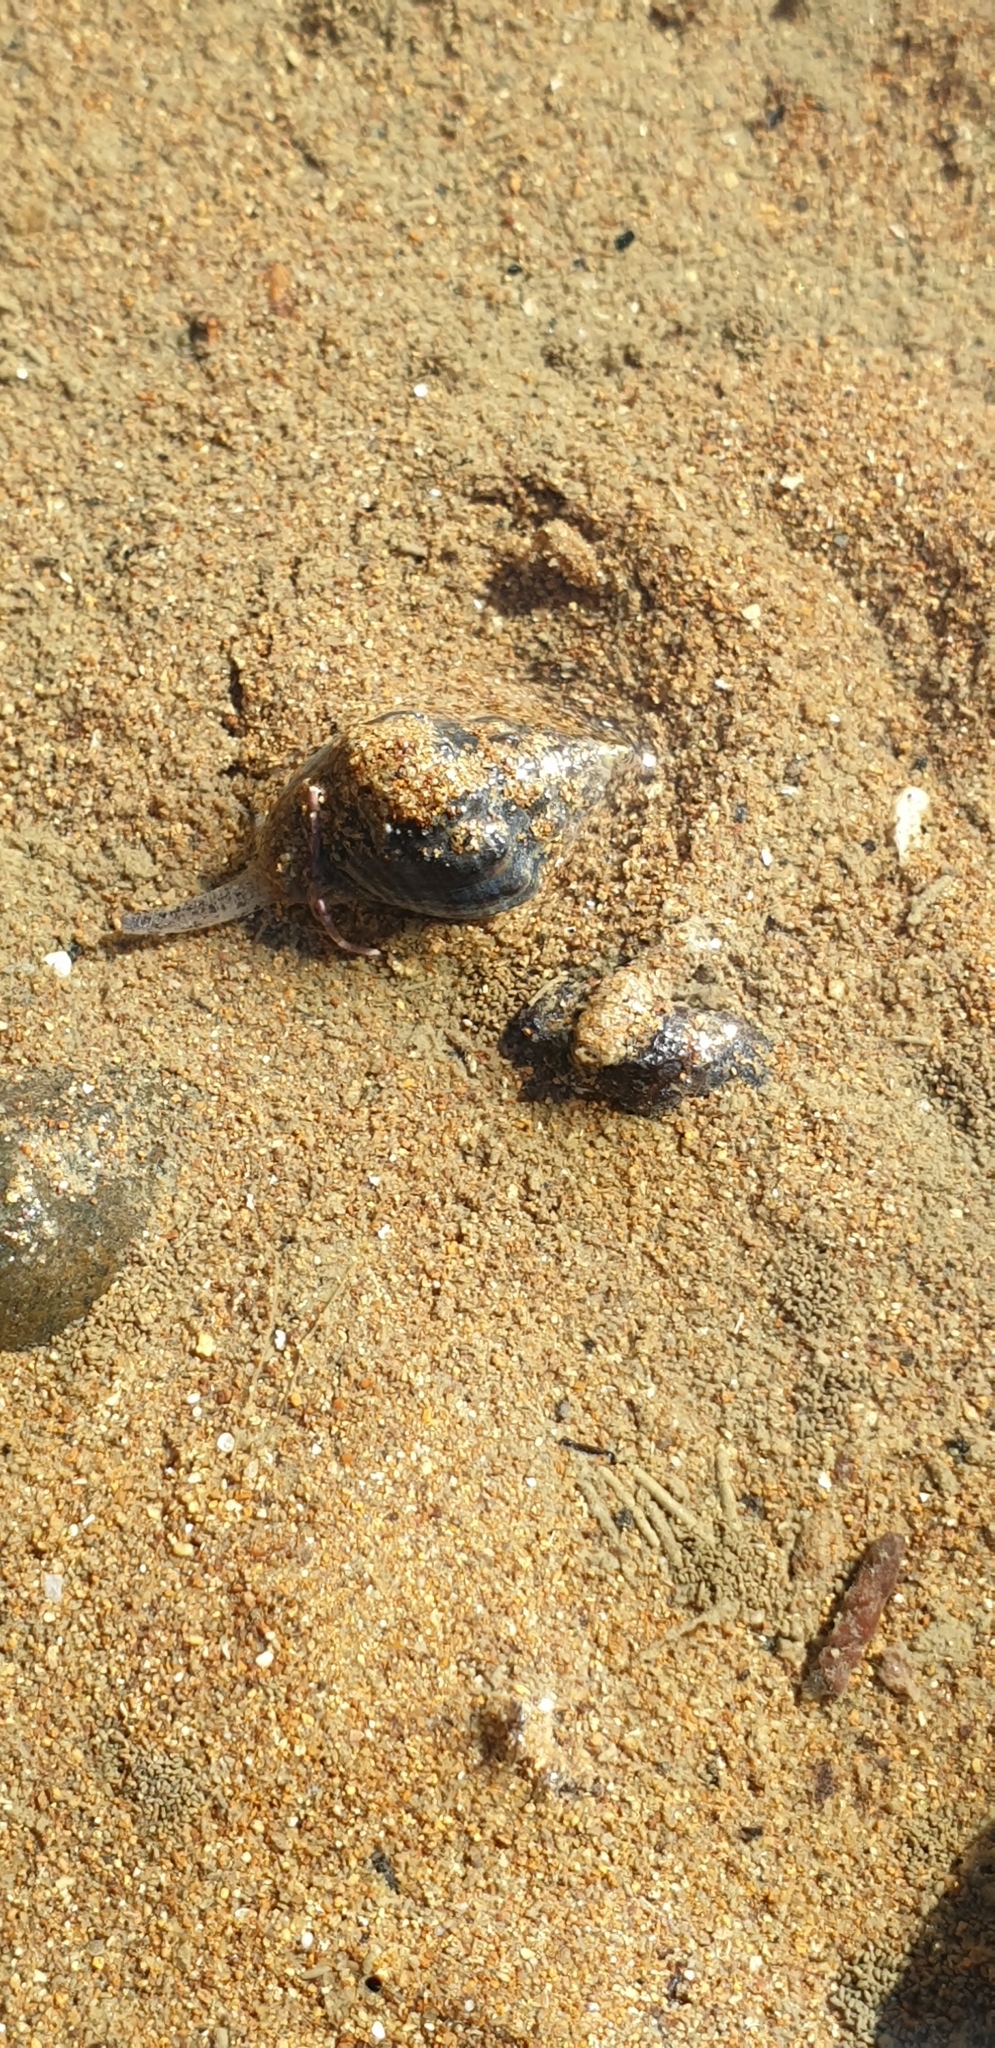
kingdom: Animalia
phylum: Mollusca
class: Gastropoda
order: Neogastropoda
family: Cominellidae
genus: Cominella
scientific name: Cominella glandiformis
